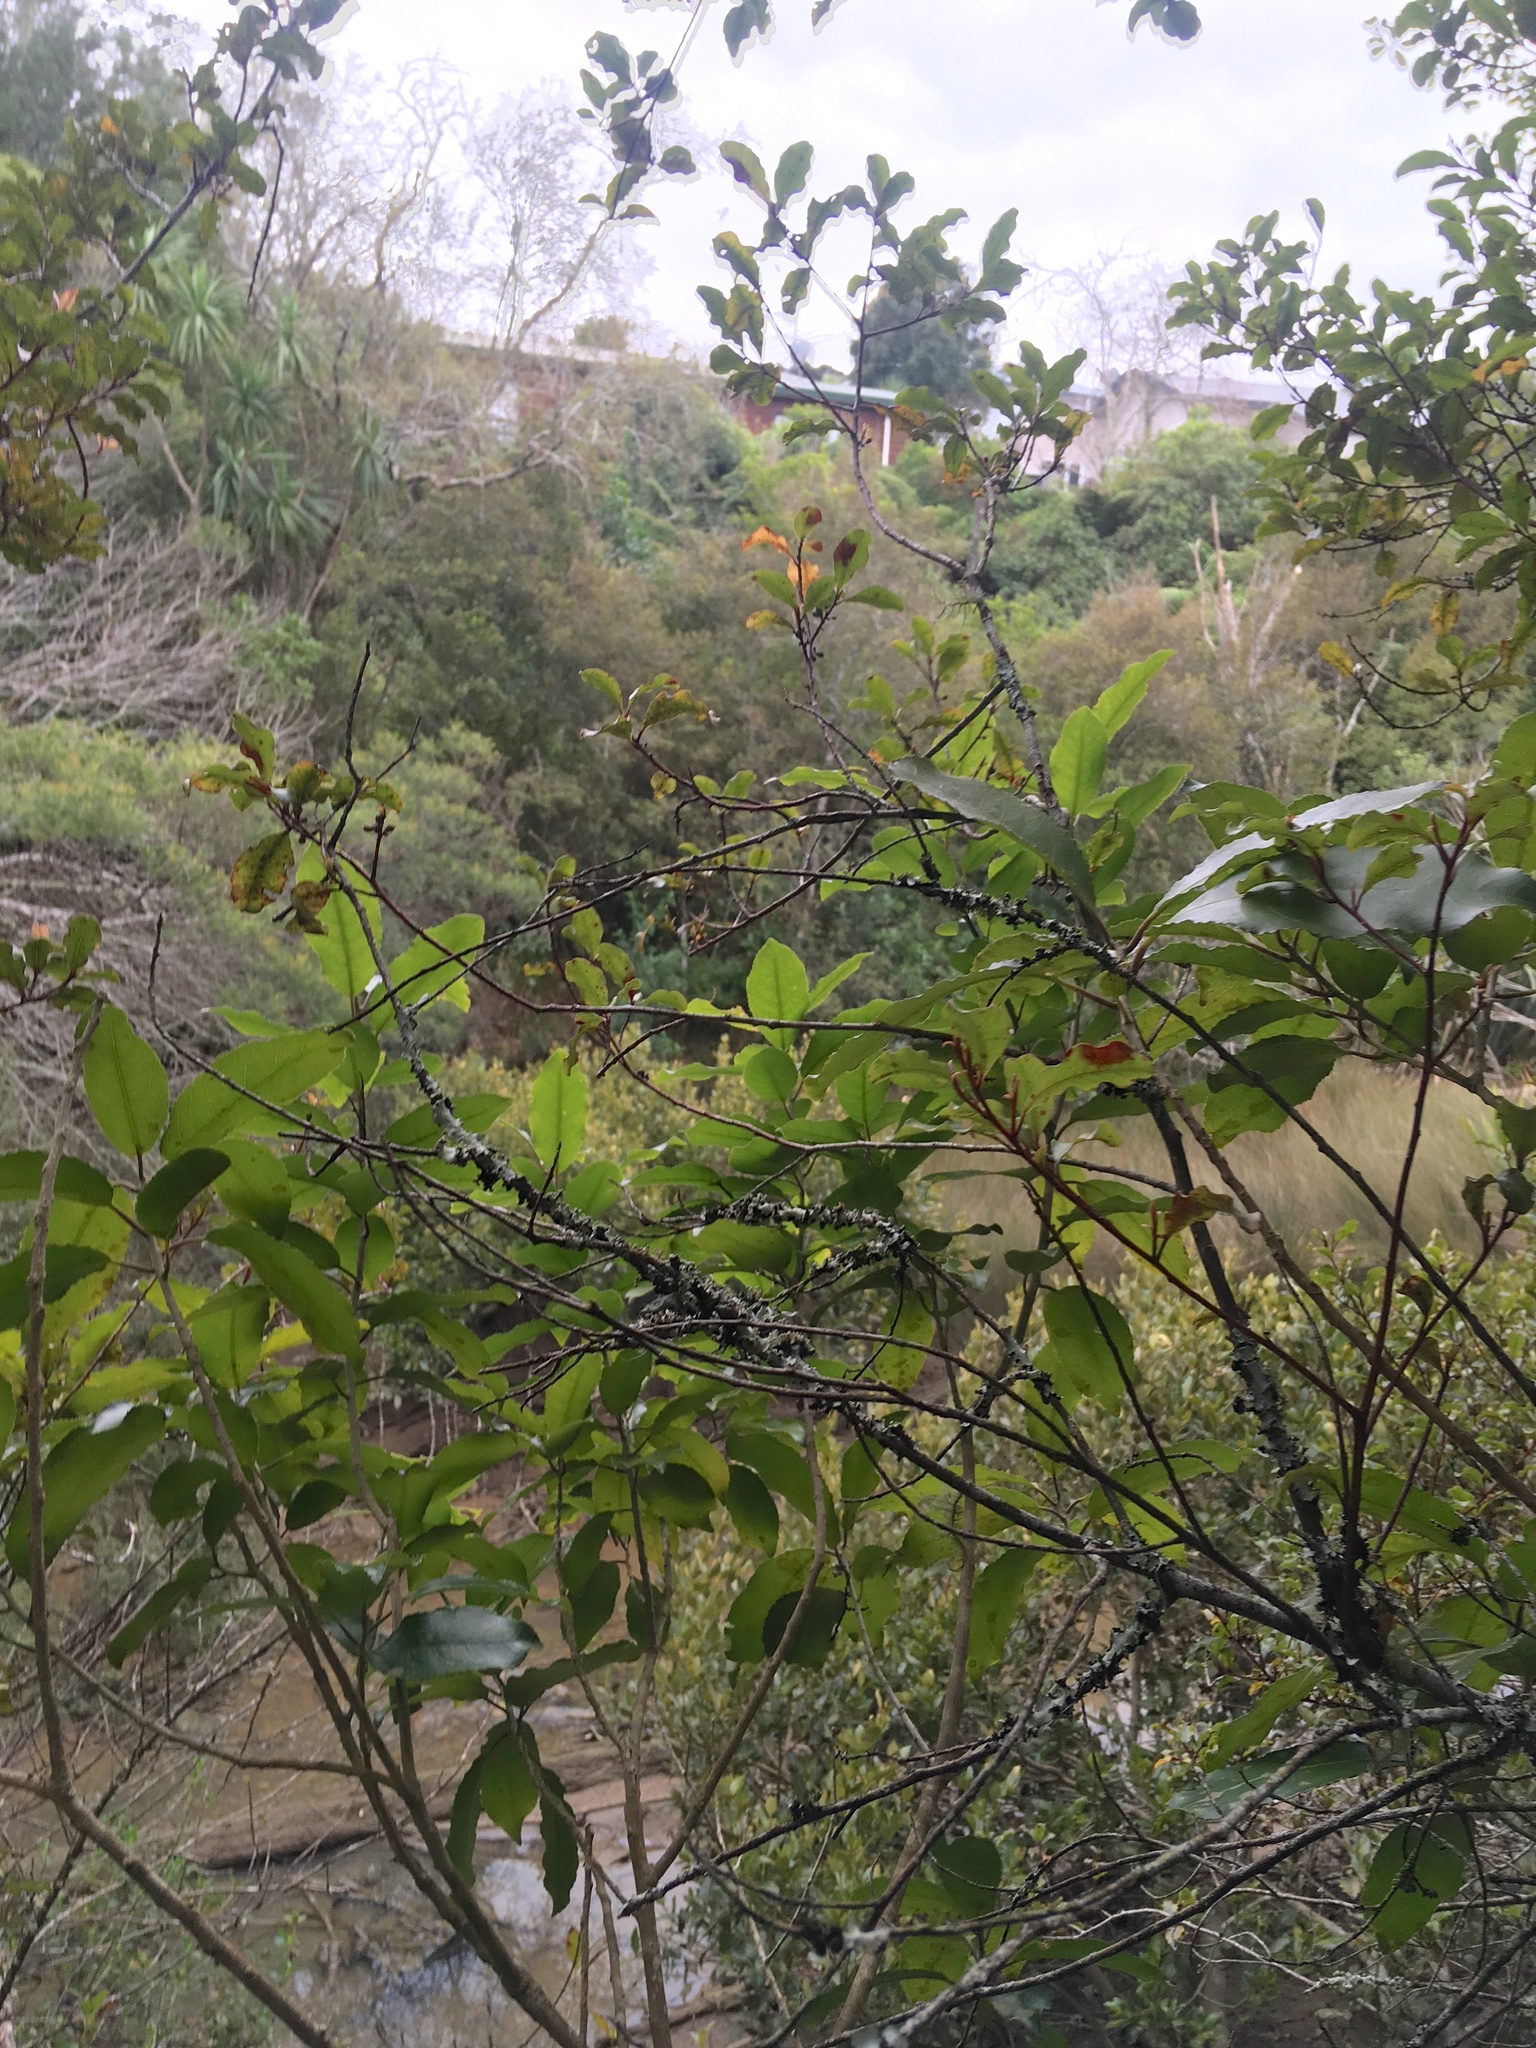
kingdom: Plantae
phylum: Tracheophyta
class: Magnoliopsida
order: Malpighiales
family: Violaceae
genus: Melicytus
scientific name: Melicytus ramiflorus
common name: Mahoe
